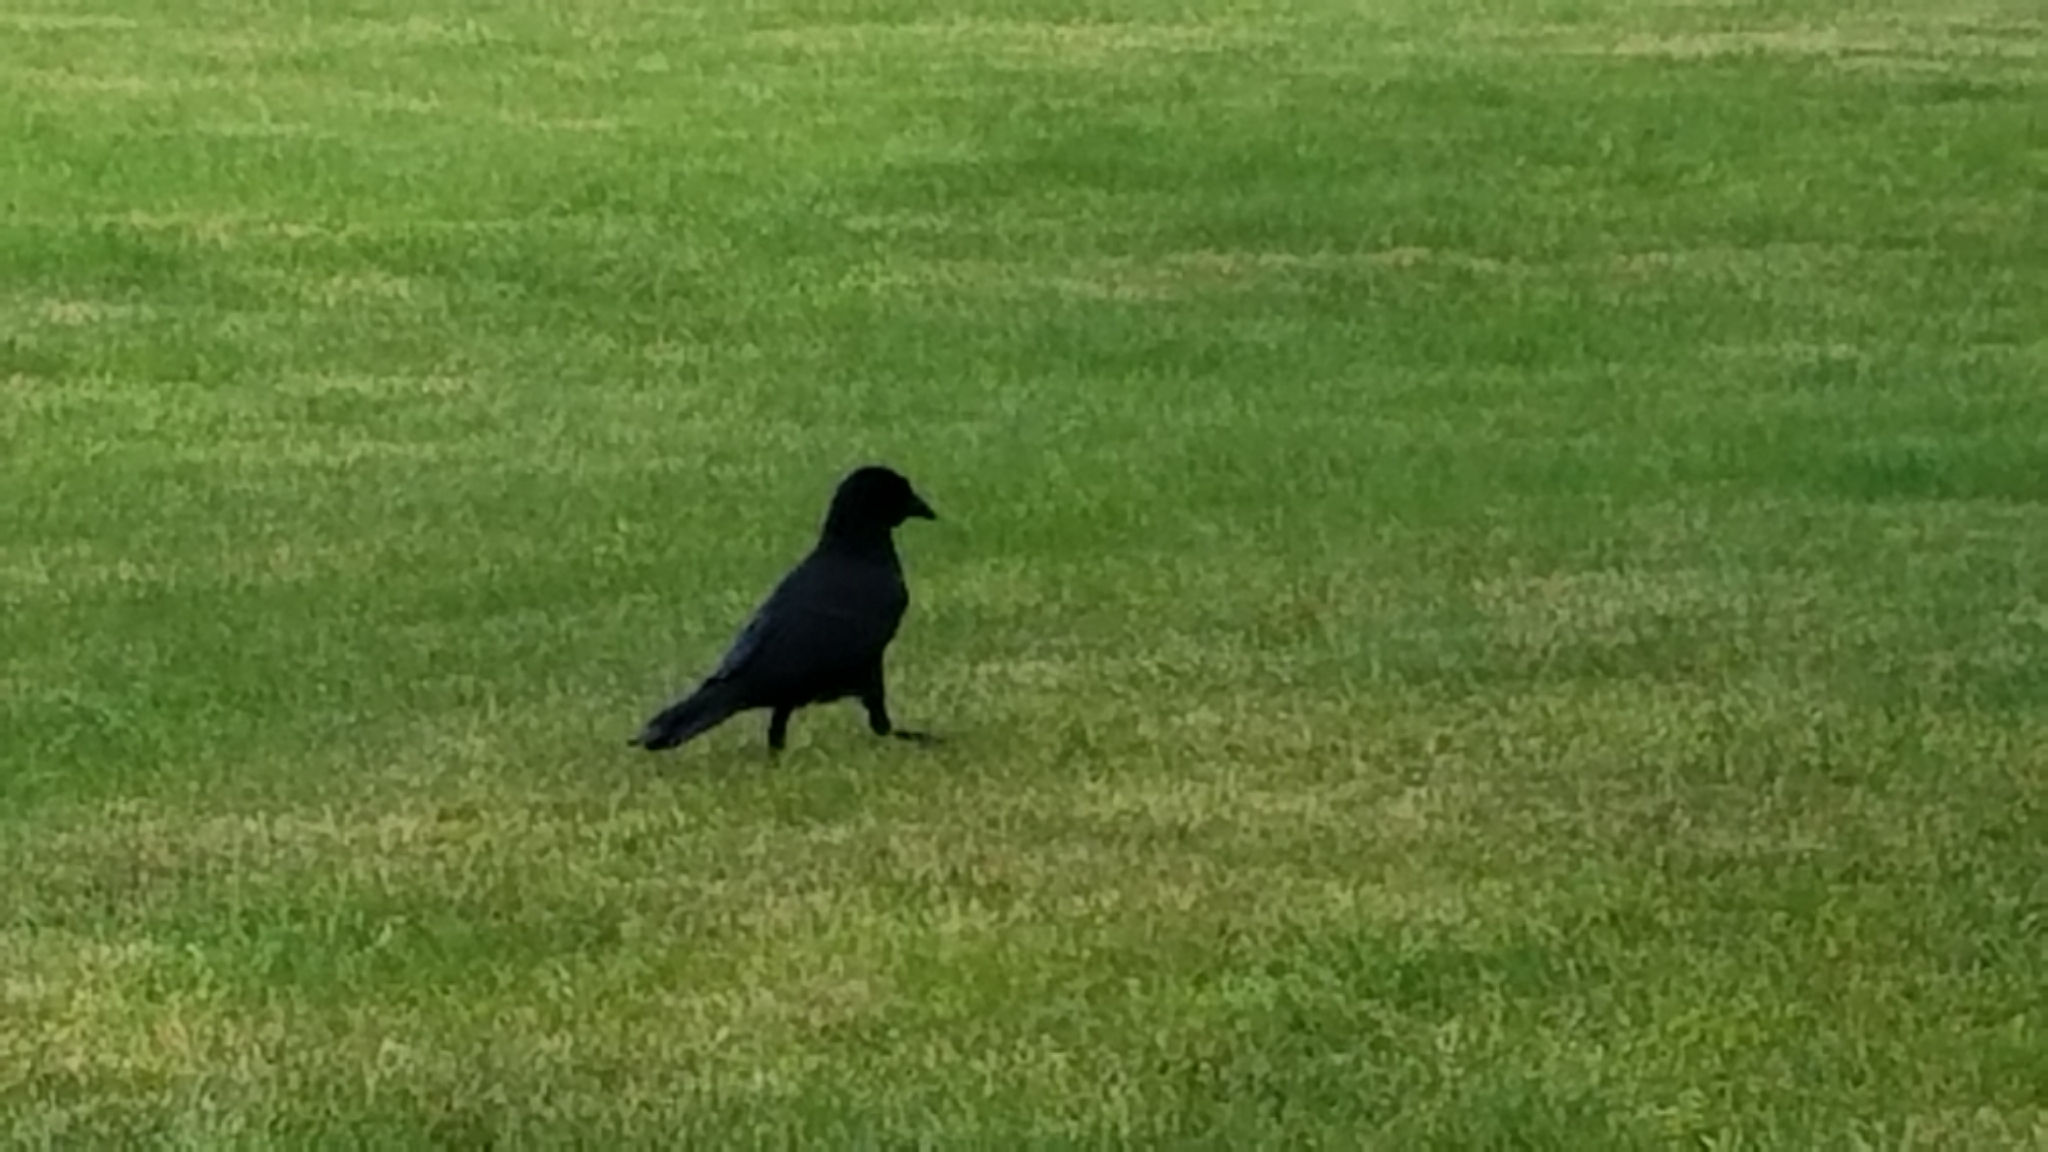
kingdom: Animalia
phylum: Chordata
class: Aves
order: Passeriformes
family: Corvidae
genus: Corvus
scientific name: Corvus brachyrhynchos
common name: American crow
